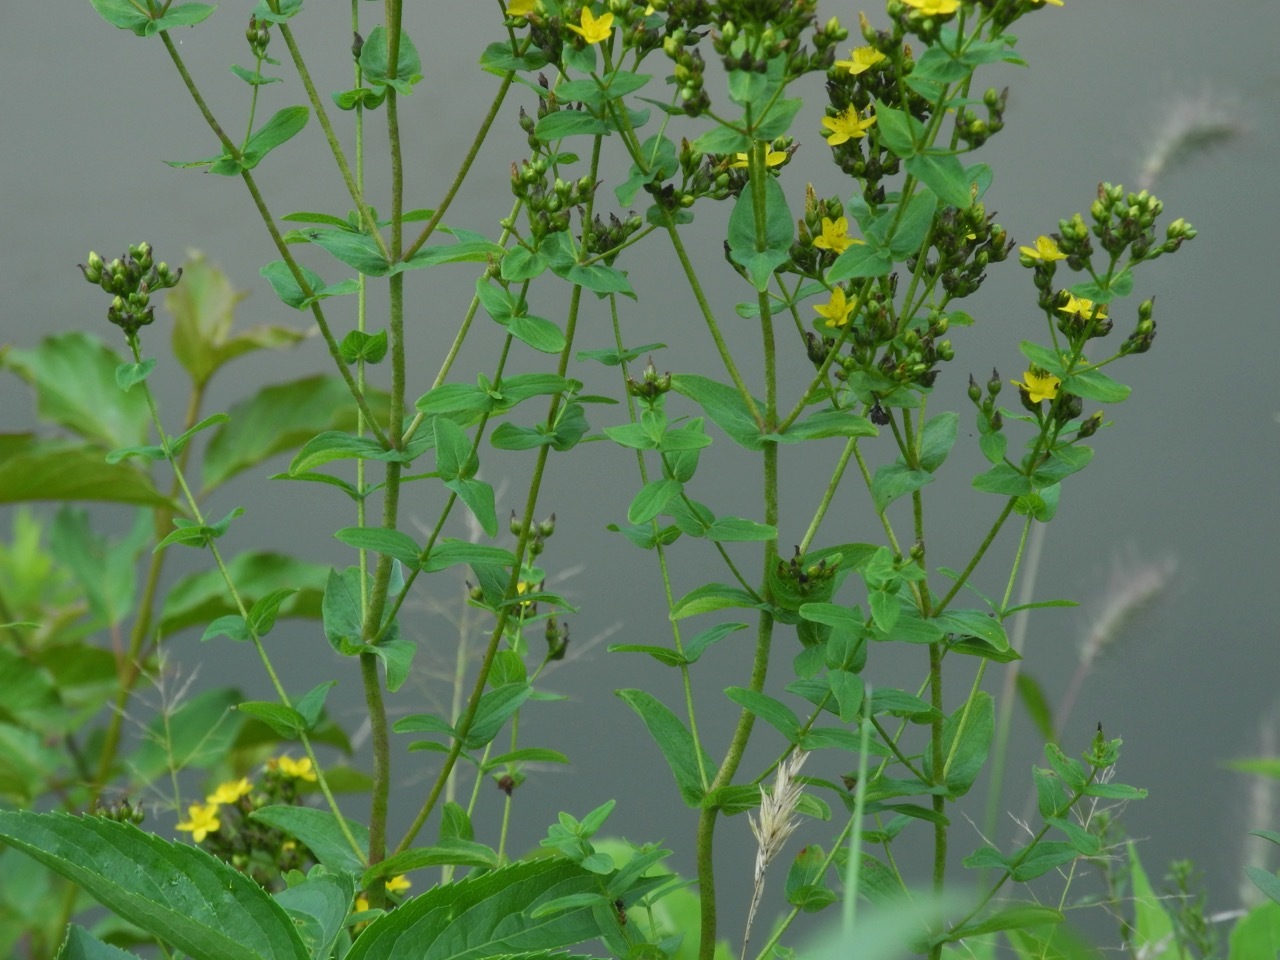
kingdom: Plantae
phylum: Tracheophyta
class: Magnoliopsida
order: Malpighiales
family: Hypericaceae
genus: Hypericum
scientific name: Hypericum perforatum
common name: Common st. johnswort
